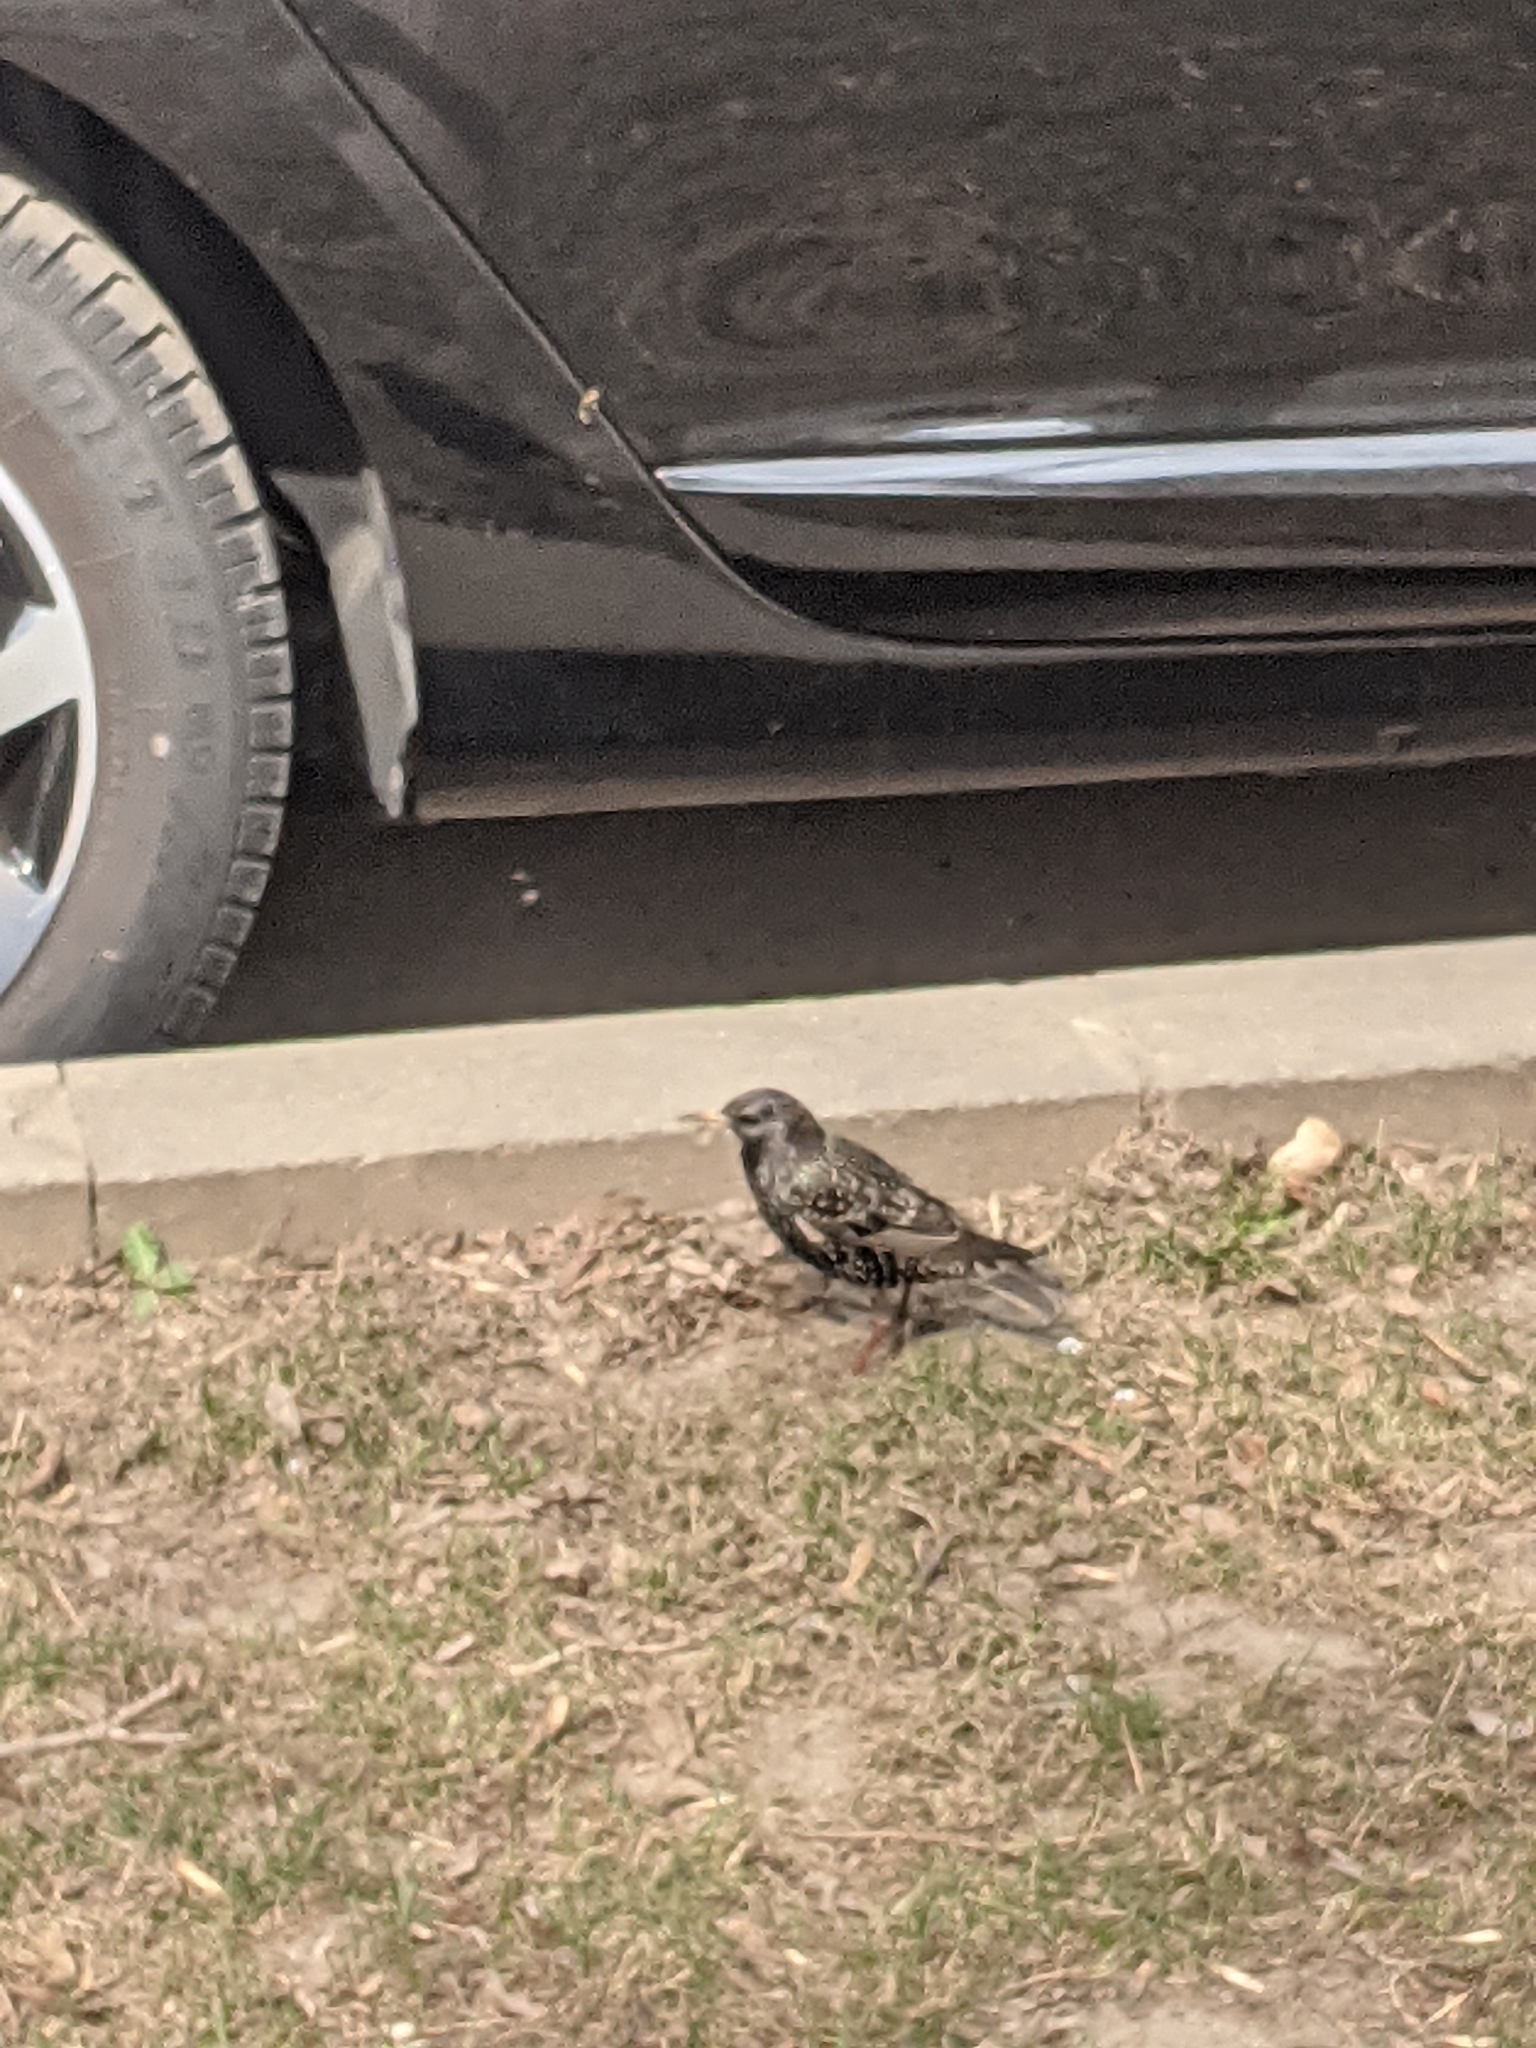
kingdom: Animalia
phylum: Chordata
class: Aves
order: Passeriformes
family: Sturnidae
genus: Sturnus
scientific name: Sturnus vulgaris
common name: Common starling
